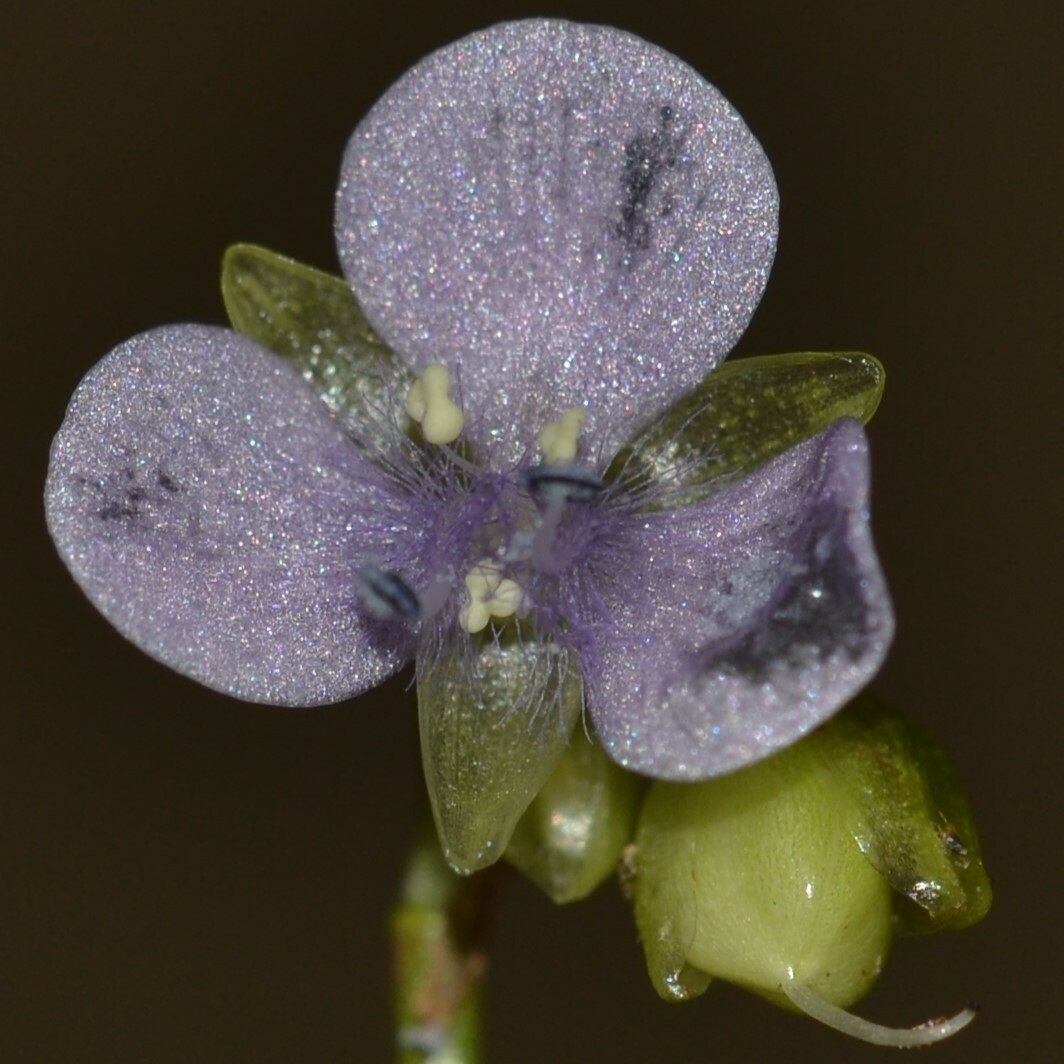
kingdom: Plantae
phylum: Tracheophyta
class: Liliopsida
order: Commelinales
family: Commelinaceae
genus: Murdannia
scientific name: Murdannia nudiflora
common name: Nakedstem dewflower
